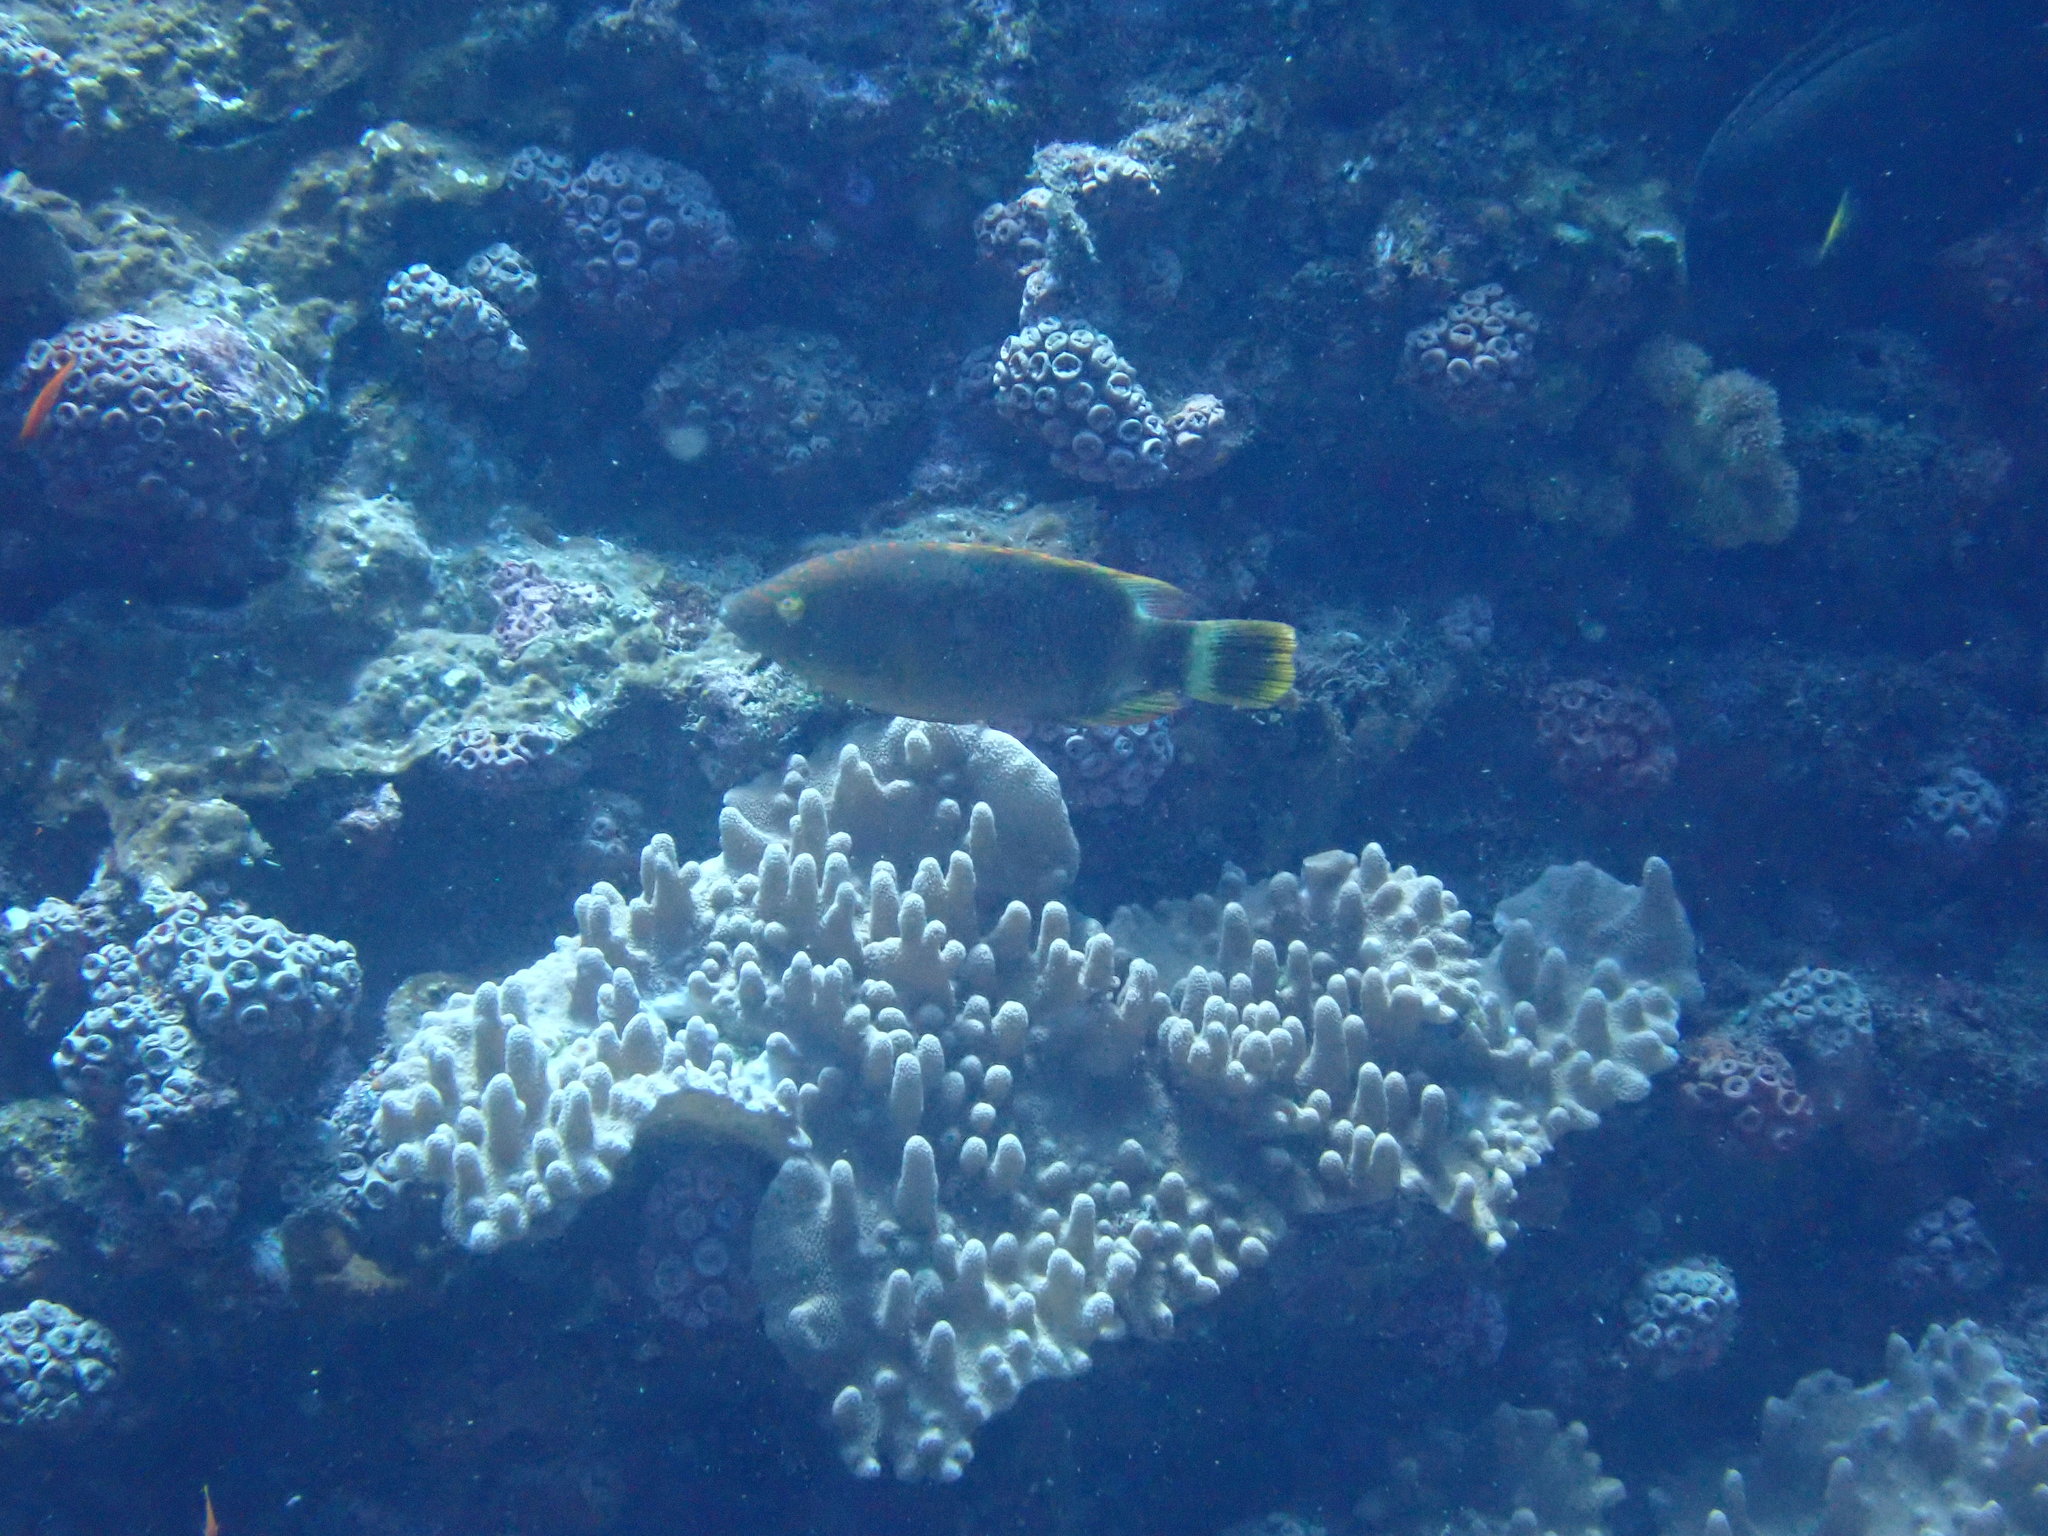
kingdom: Animalia
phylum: Chordata
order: Perciformes
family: Labridae
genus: Cheilinus
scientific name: Cheilinus trilobatus
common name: Tripletail maori wrasse
